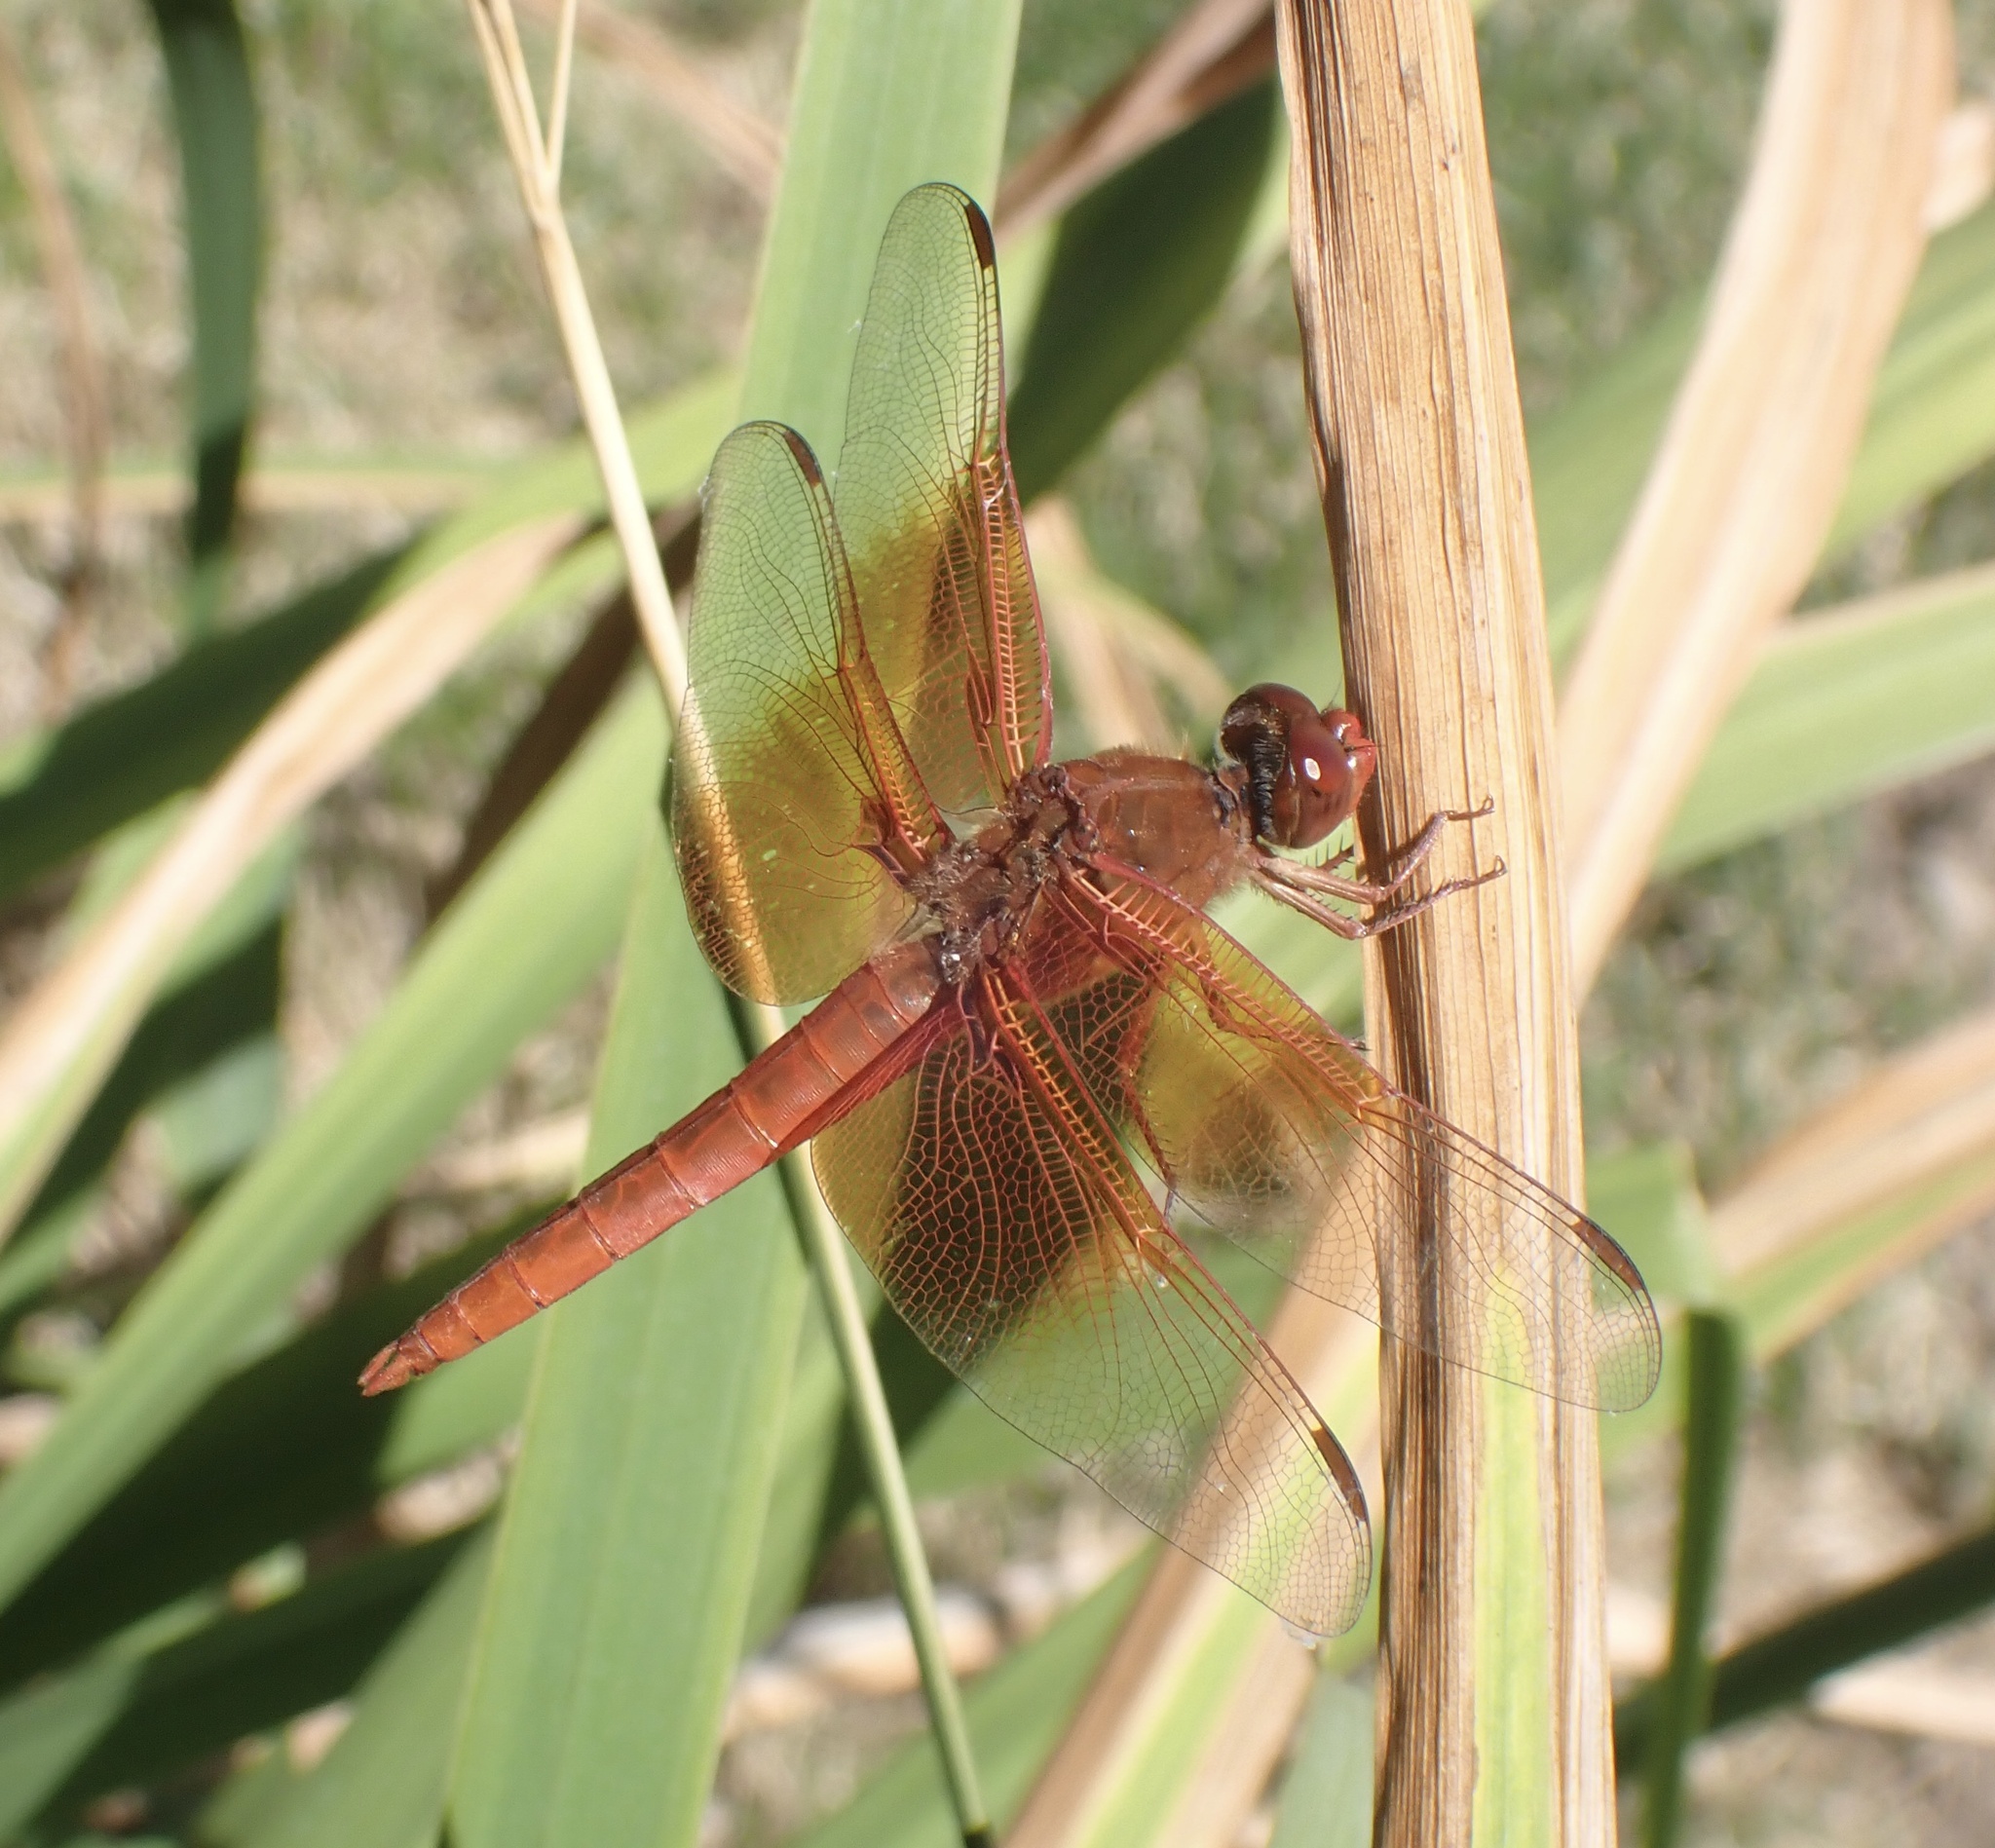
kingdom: Animalia
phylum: Arthropoda
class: Insecta
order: Odonata
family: Libellulidae
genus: Libellula
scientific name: Libellula saturata
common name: Flame skimmer
